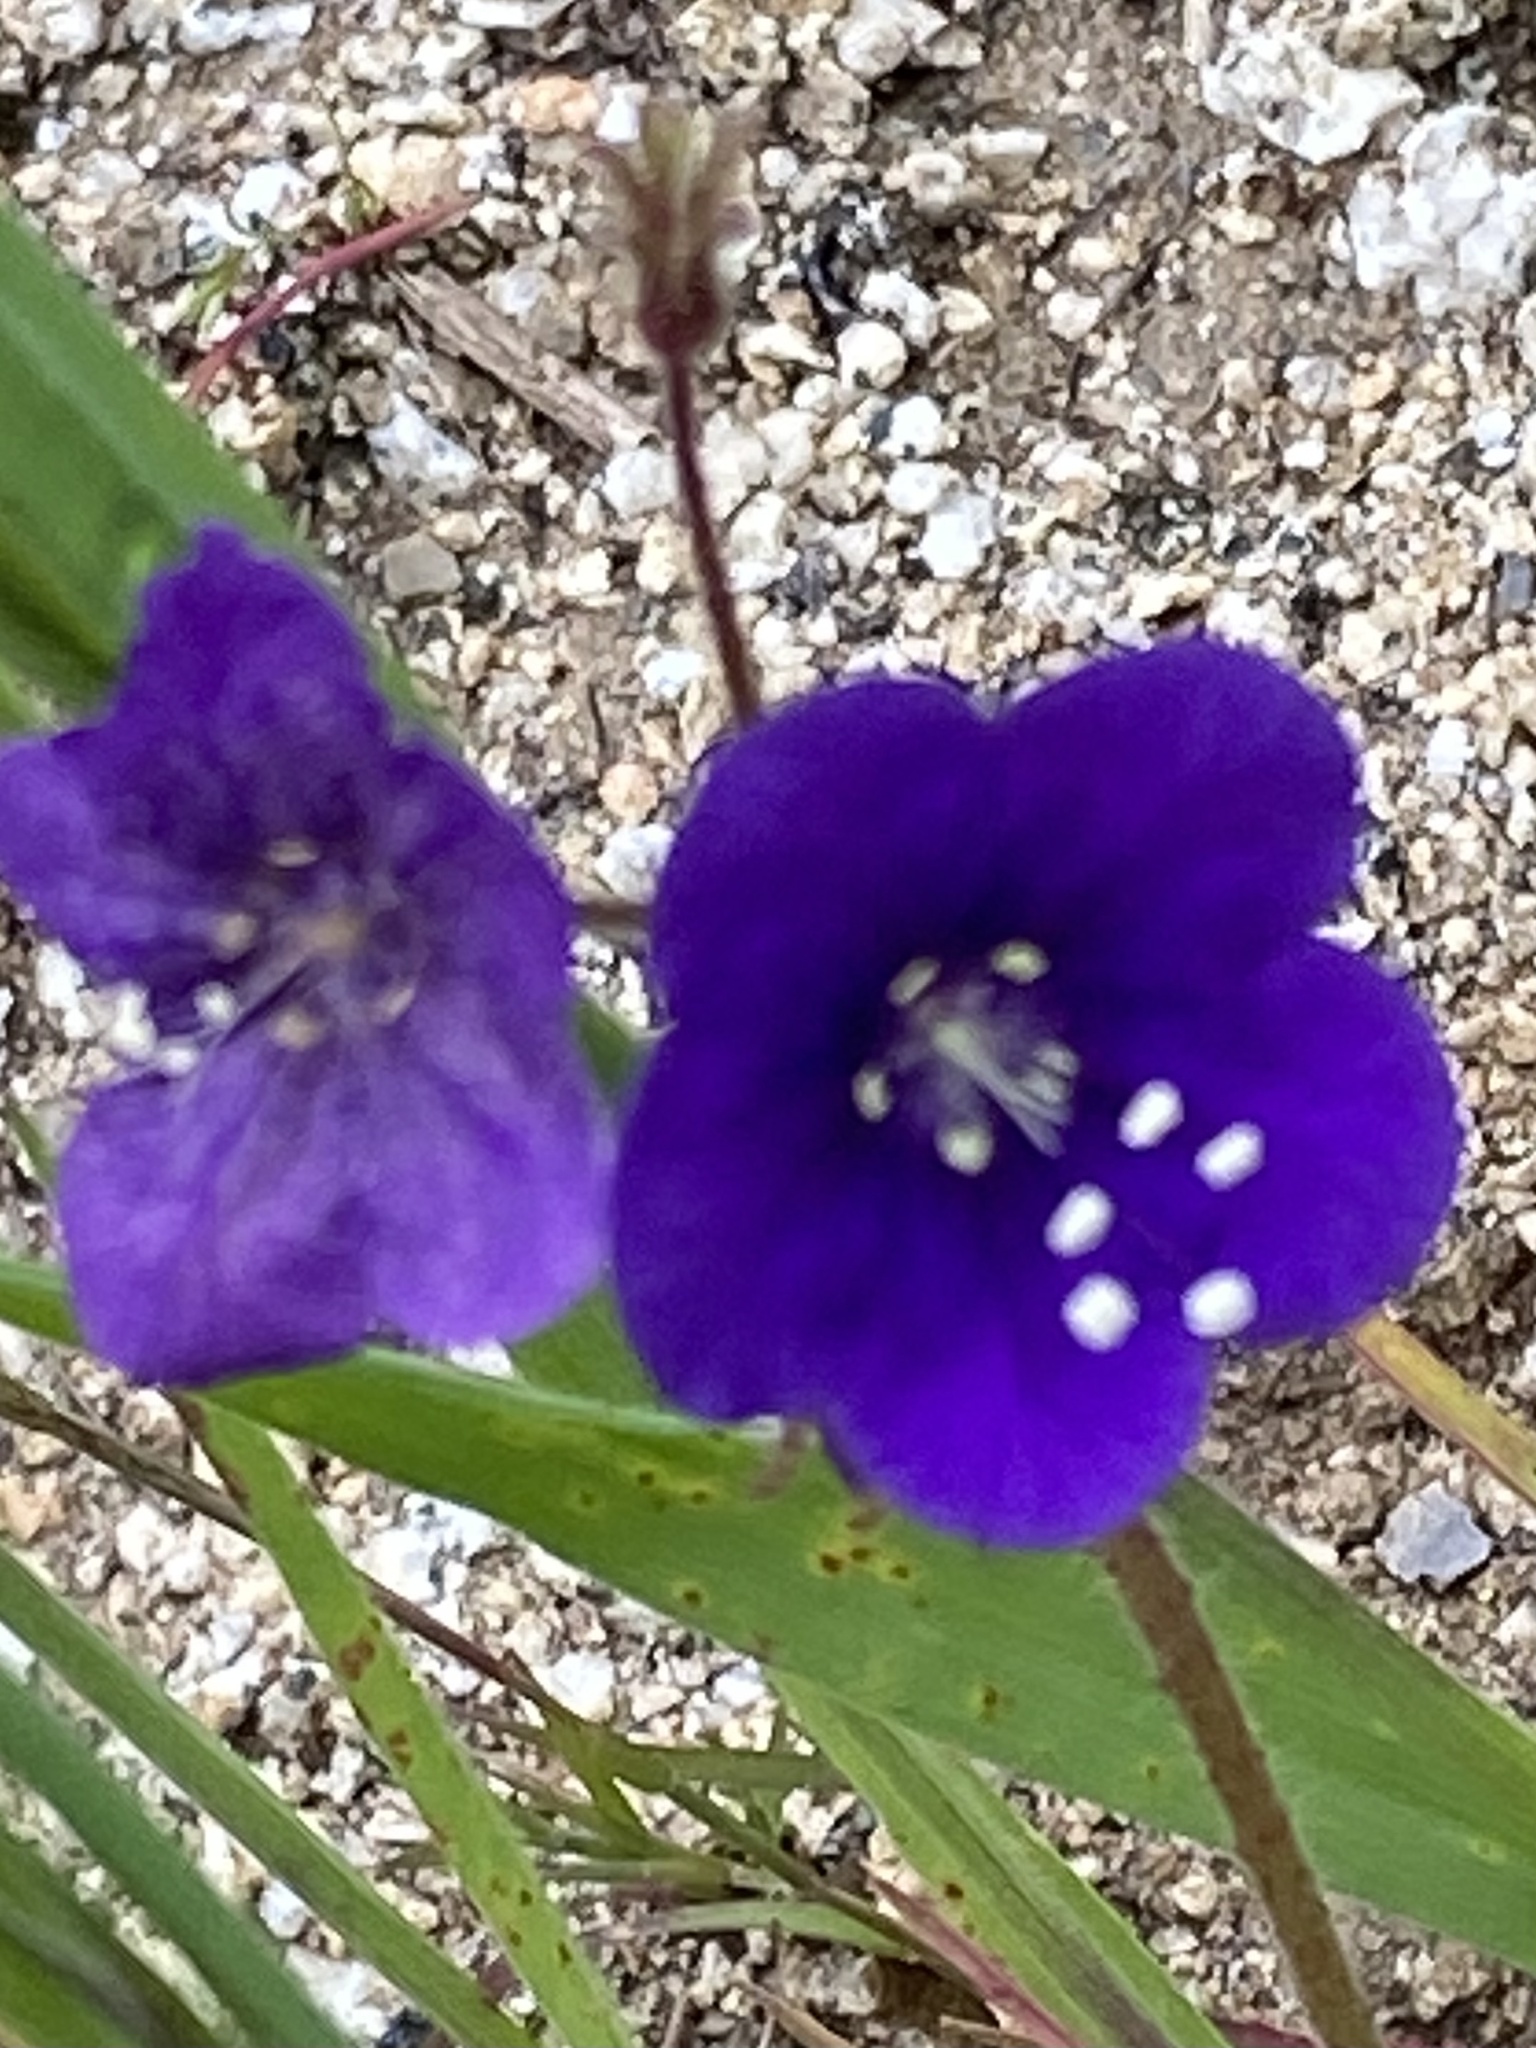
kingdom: Plantae
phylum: Tracheophyta
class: Magnoliopsida
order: Boraginales
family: Hydrophyllaceae
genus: Phacelia
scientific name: Phacelia parryi
